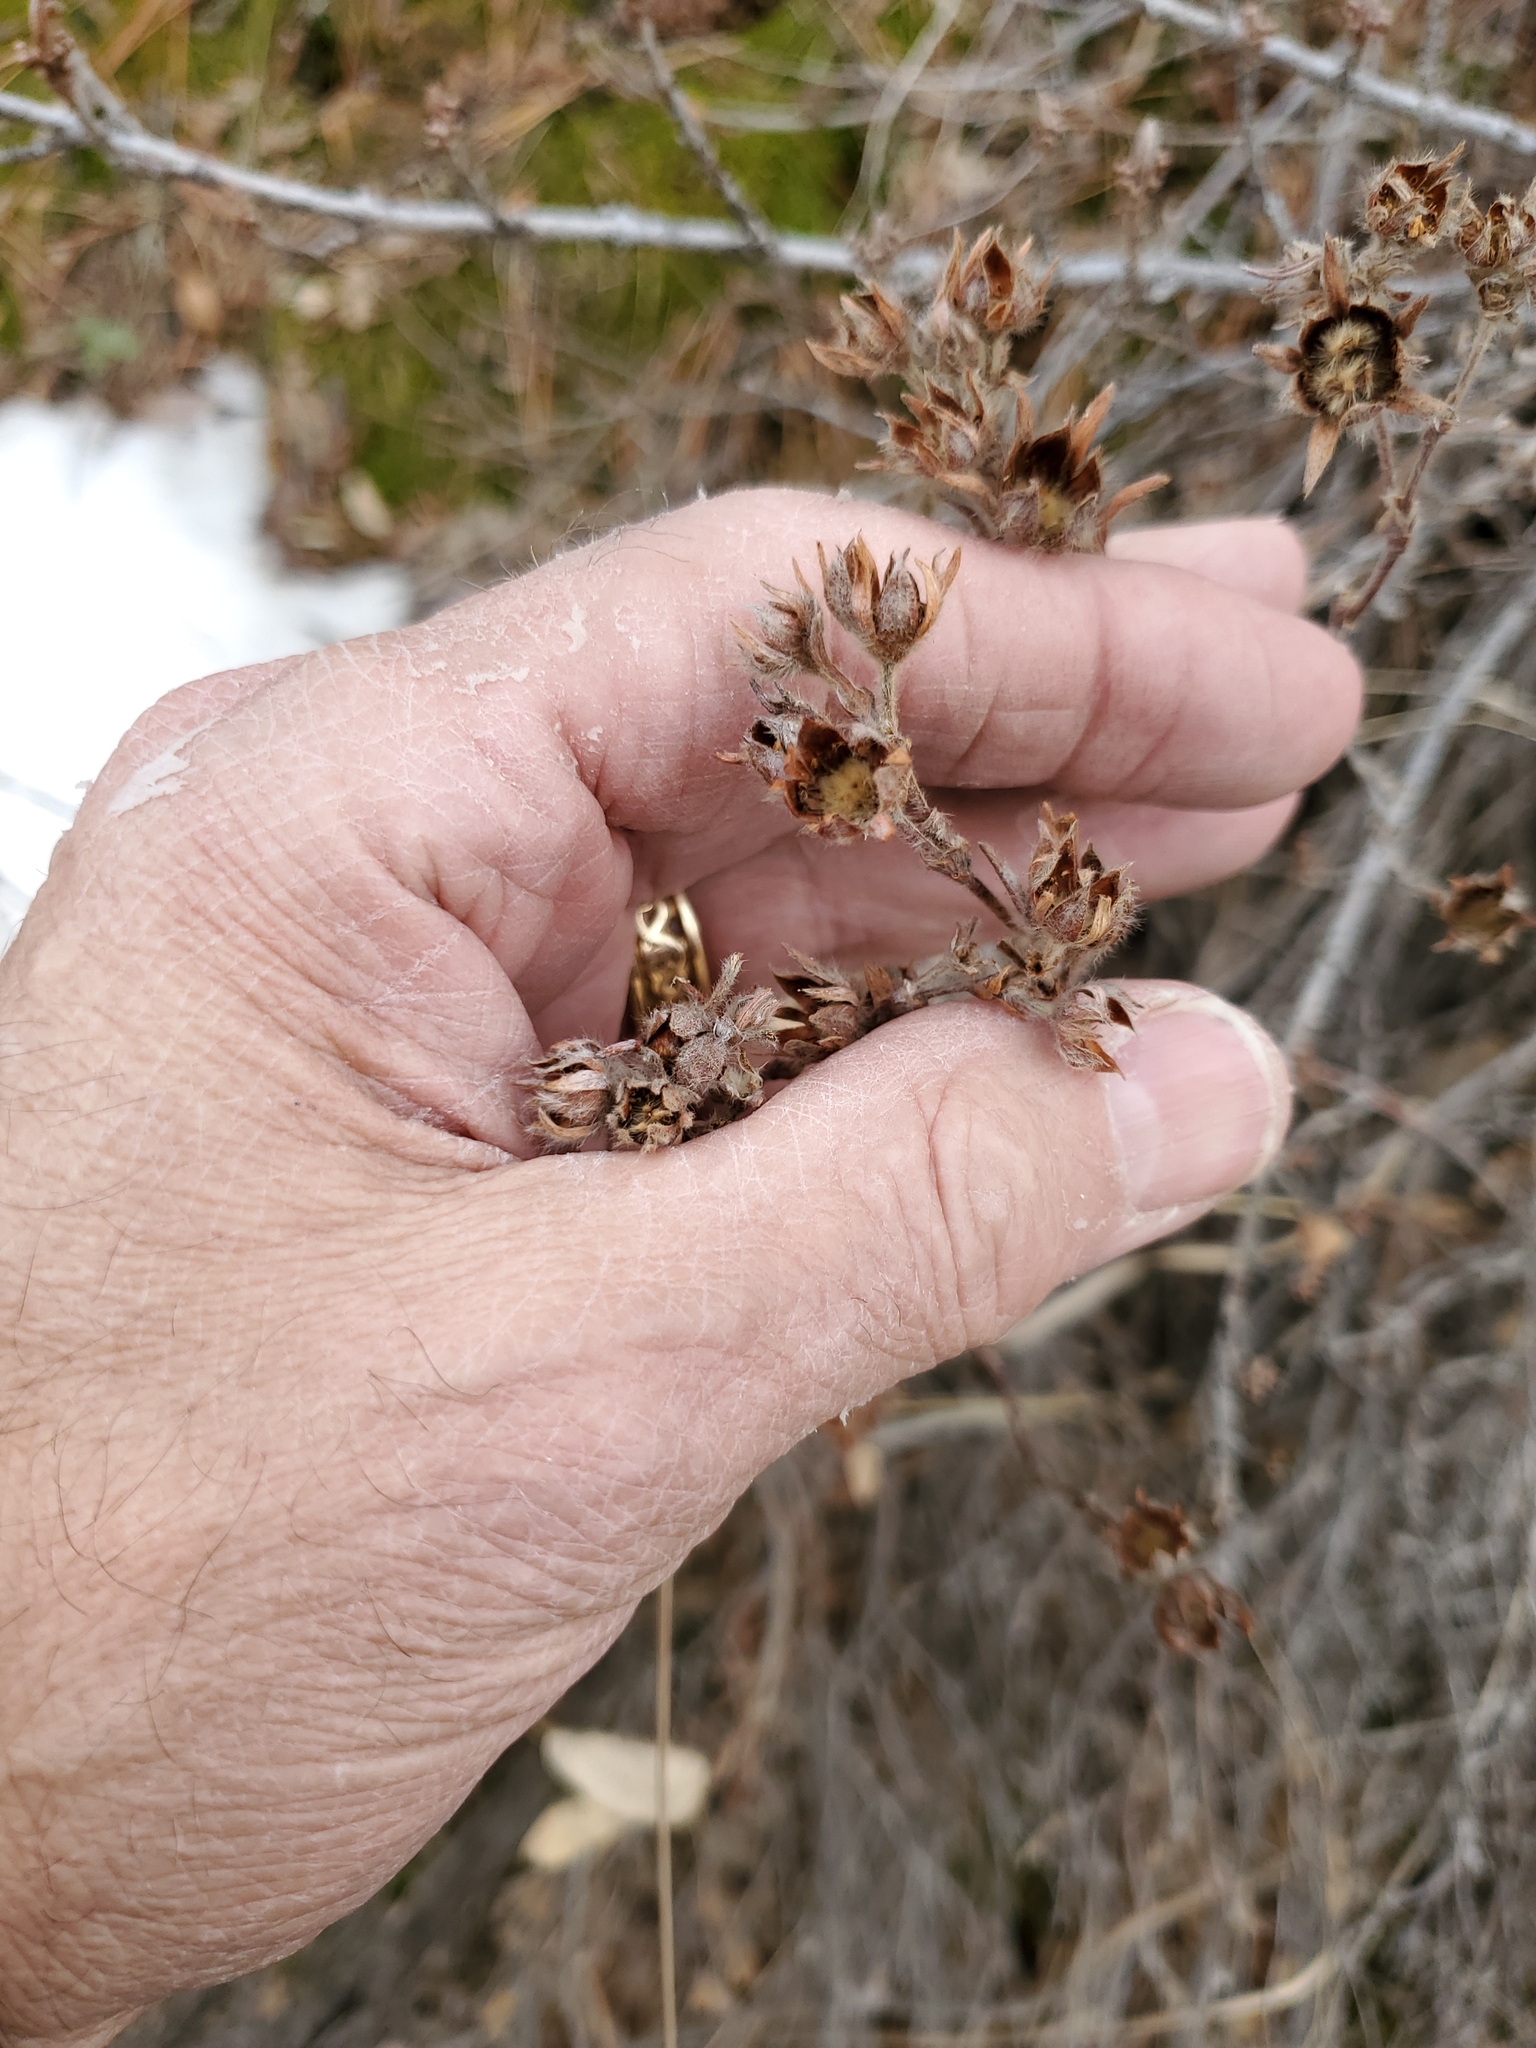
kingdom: Plantae
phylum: Tracheophyta
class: Magnoliopsida
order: Rosales
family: Rosaceae
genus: Dasiphora
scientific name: Dasiphora fruticosa
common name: Shrubby cinquefoil
